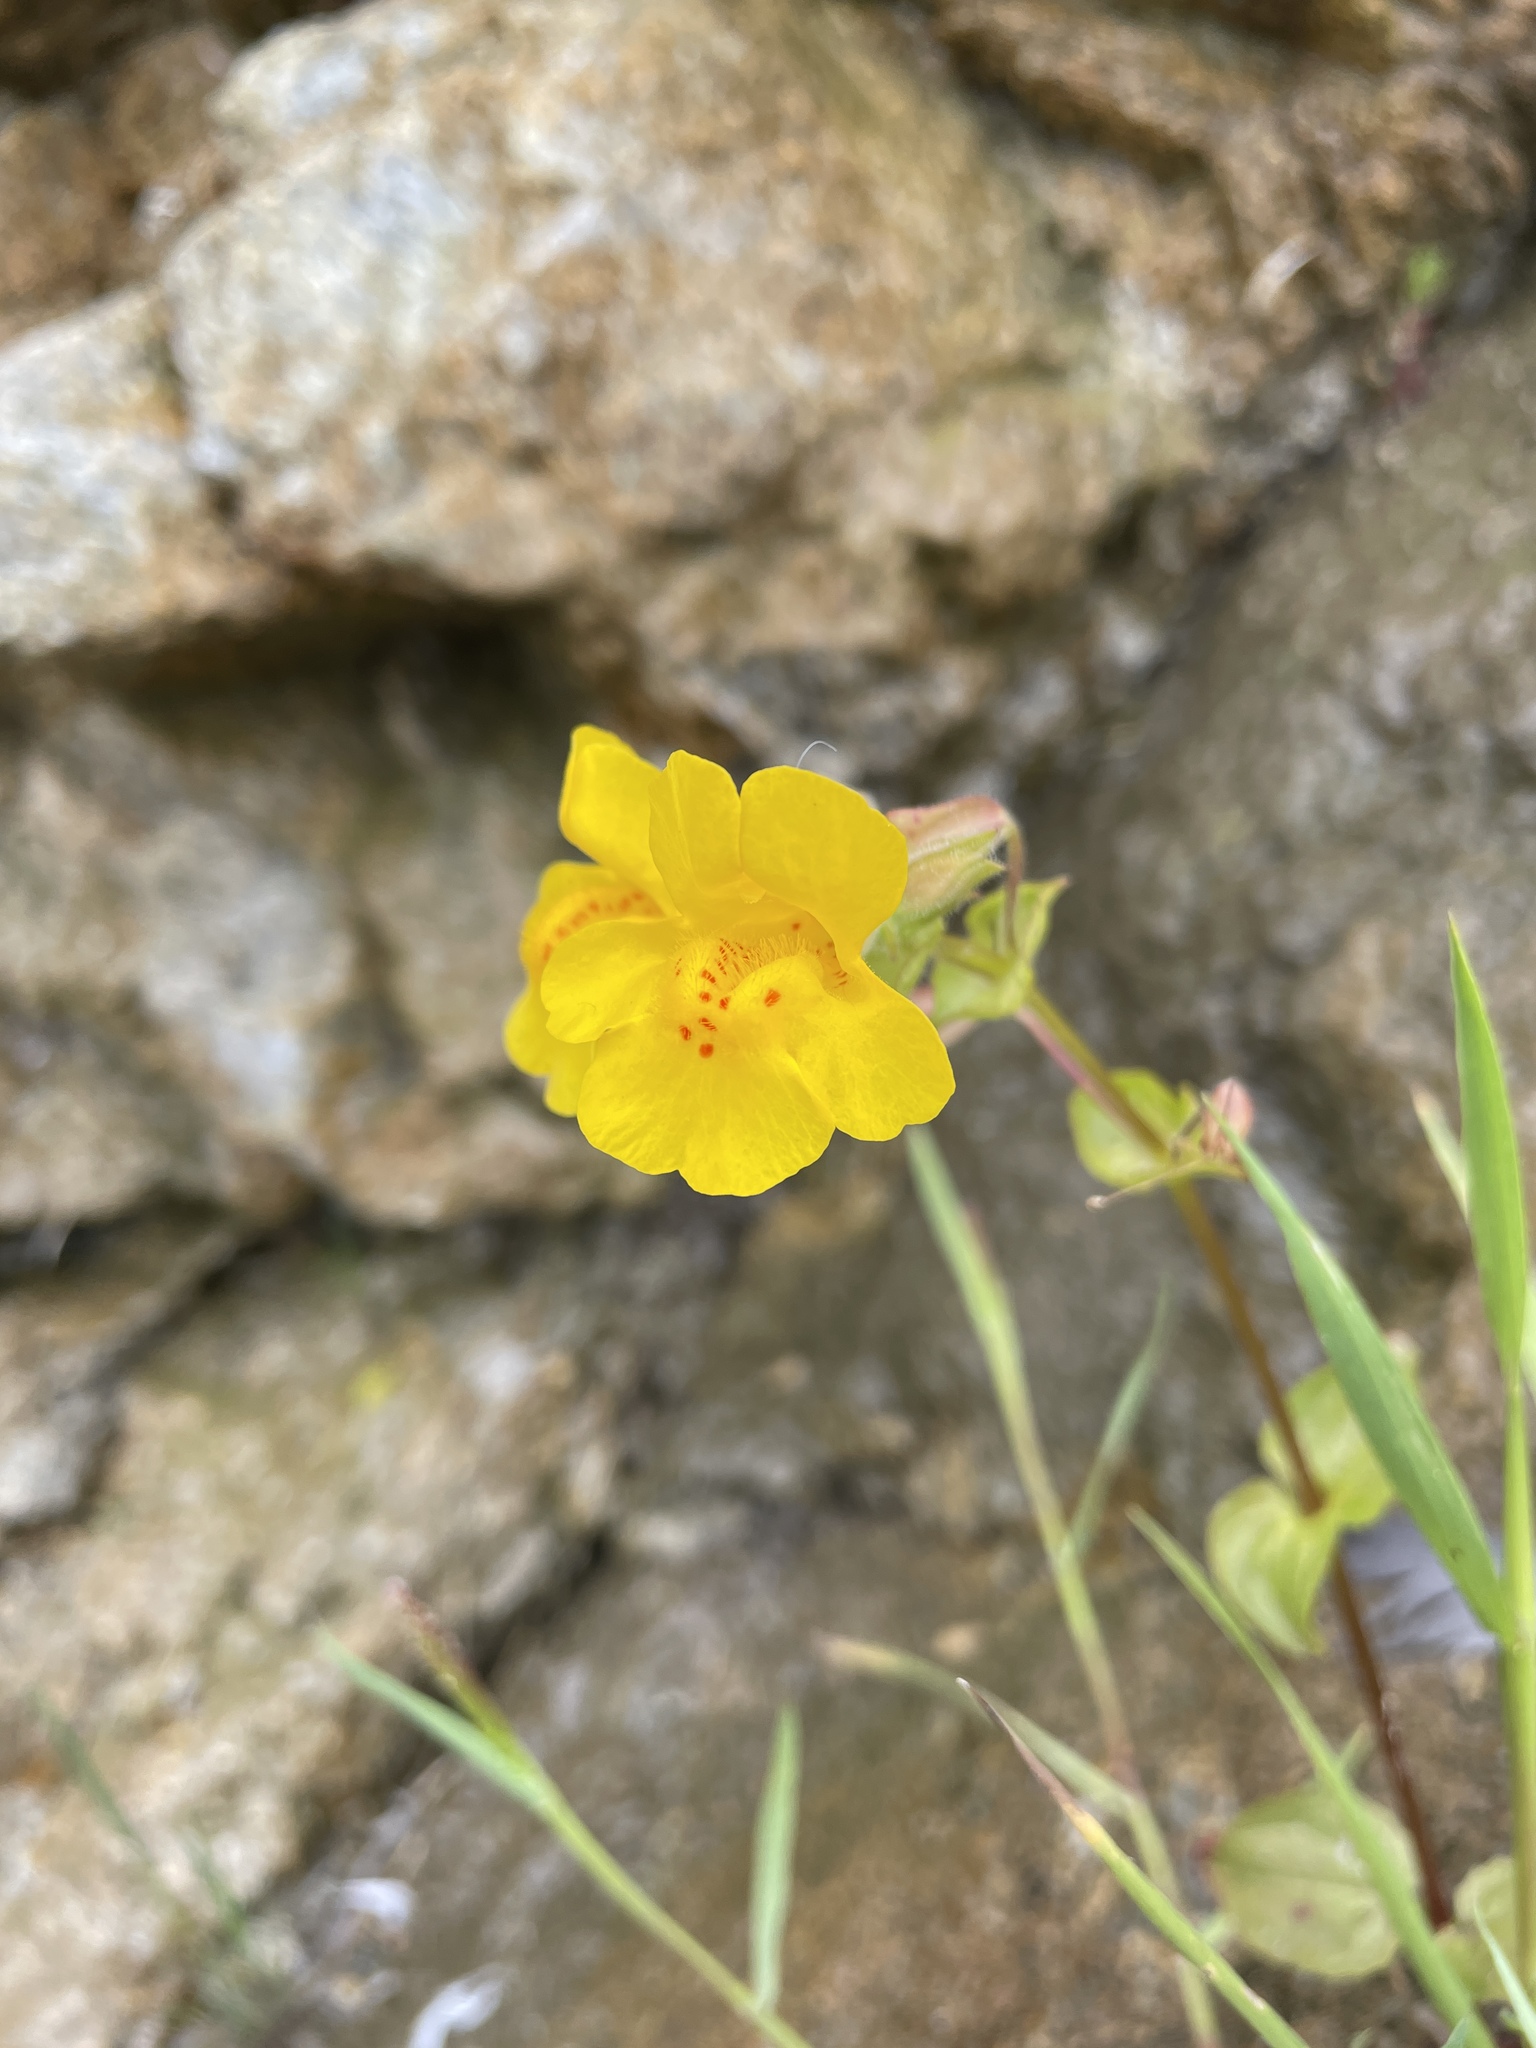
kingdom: Plantae
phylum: Tracheophyta
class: Magnoliopsida
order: Lamiales
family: Phrymaceae
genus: Erythranthe
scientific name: Erythranthe grandis
